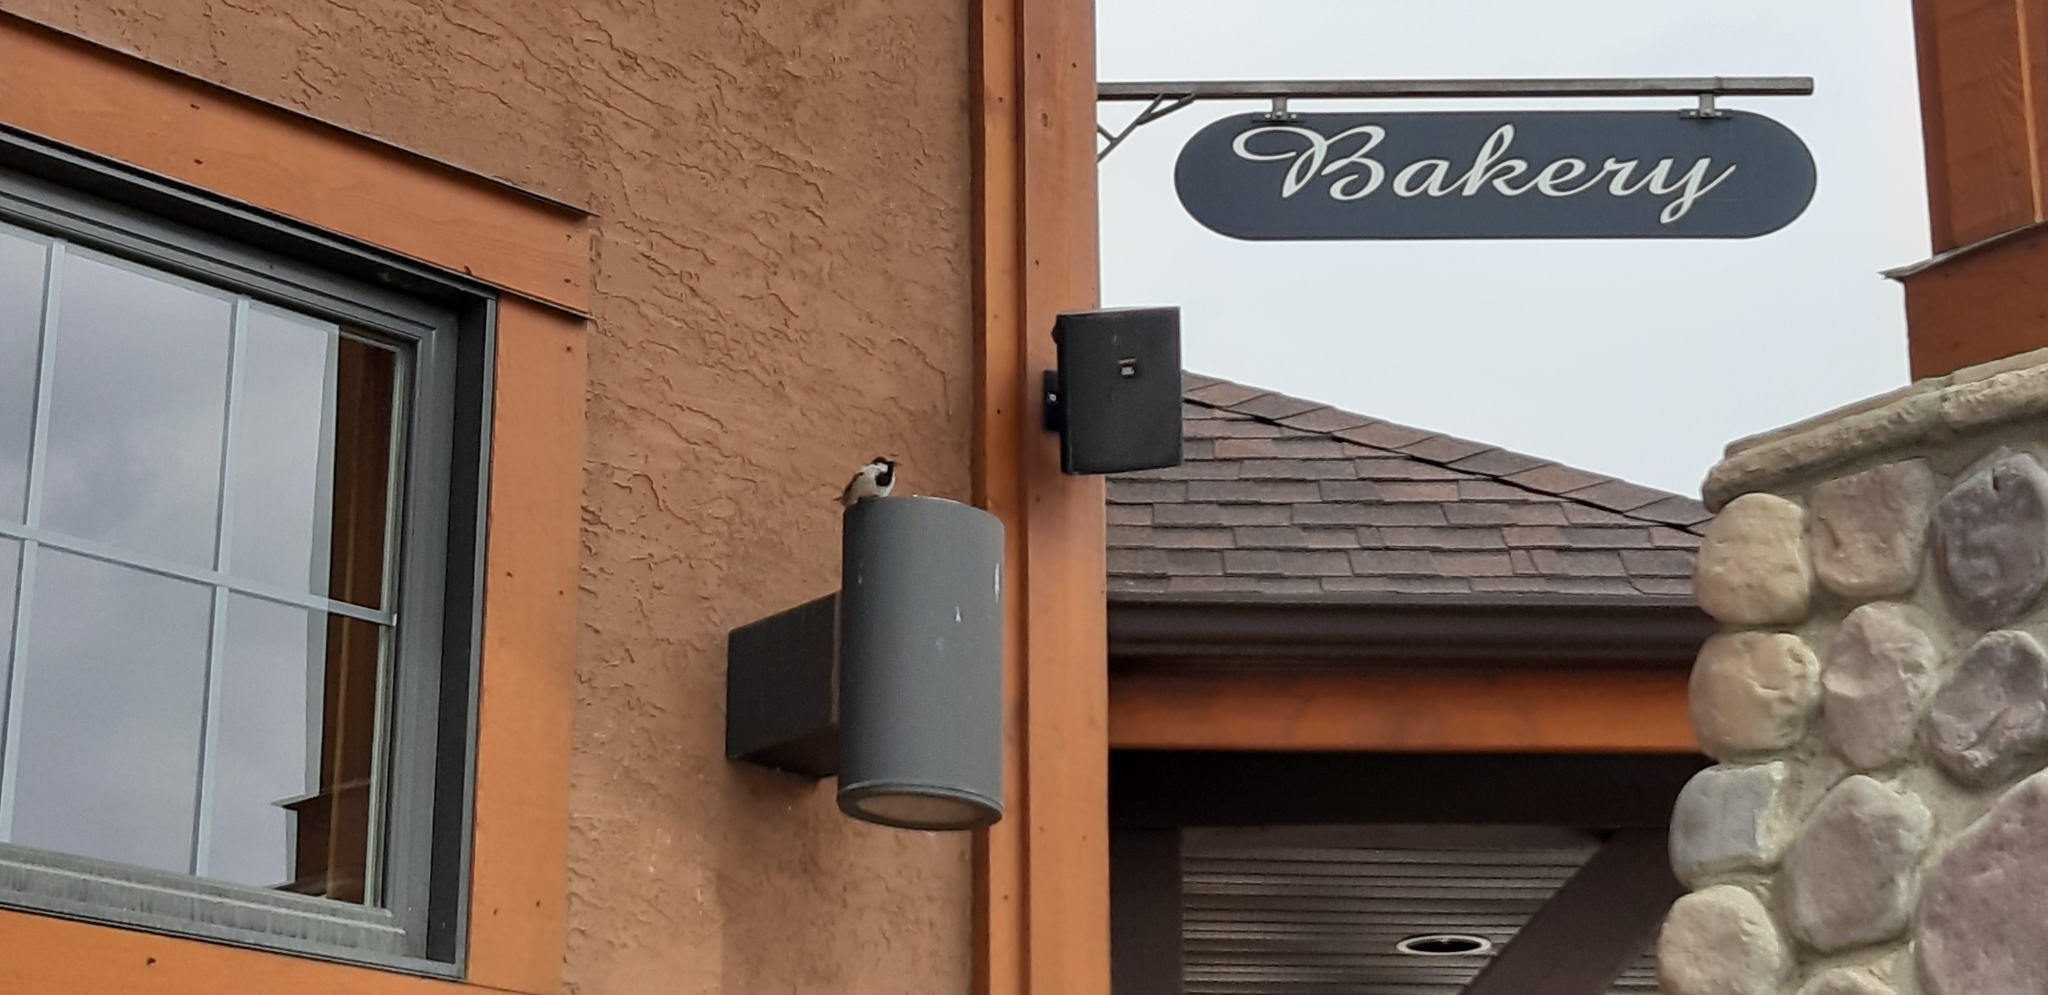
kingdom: Animalia
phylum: Chordata
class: Aves
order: Passeriformes
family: Passeridae
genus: Passer
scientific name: Passer domesticus
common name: House sparrow
